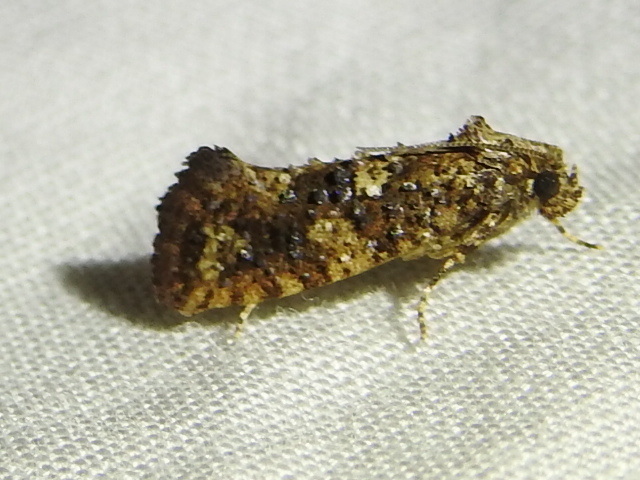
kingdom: Animalia
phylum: Arthropoda
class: Insecta
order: Lepidoptera
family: Tineidae
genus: Acrolophus
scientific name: Acrolophus cressoni
